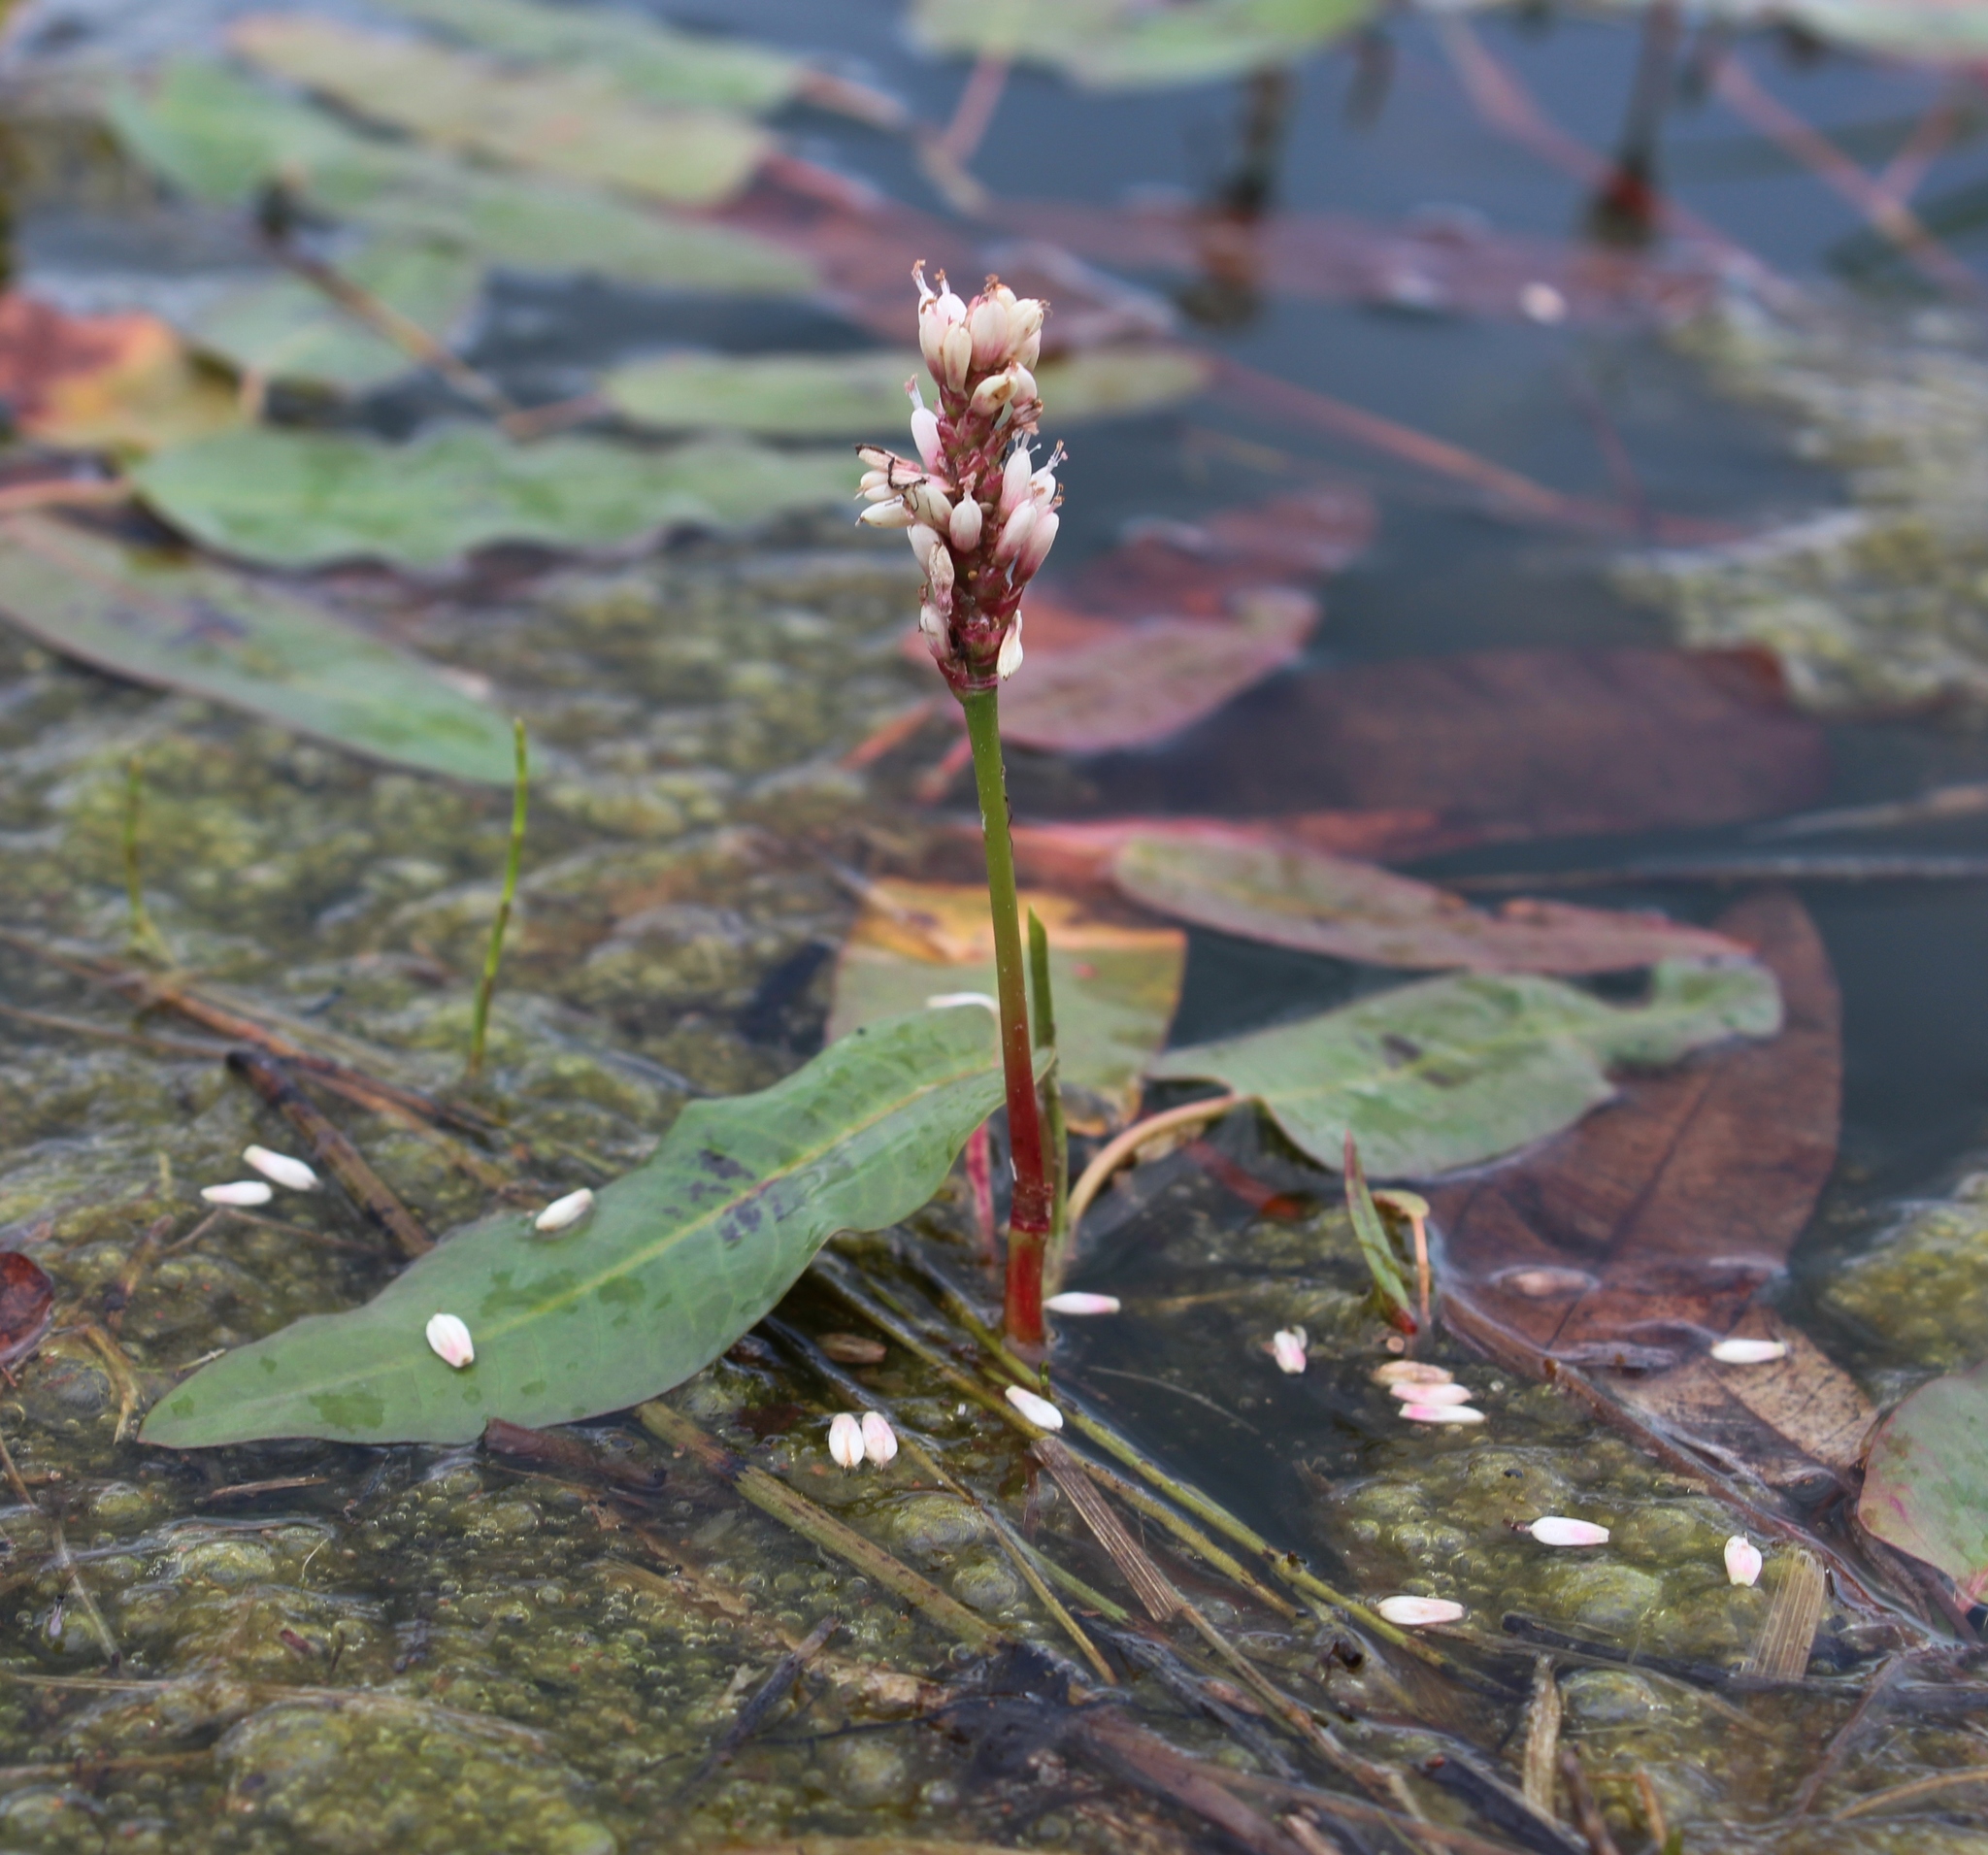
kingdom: Plantae
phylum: Tracheophyta
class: Magnoliopsida
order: Caryophyllales
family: Polygonaceae
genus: Persicaria
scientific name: Persicaria amphibia
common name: Amphibious bistort
